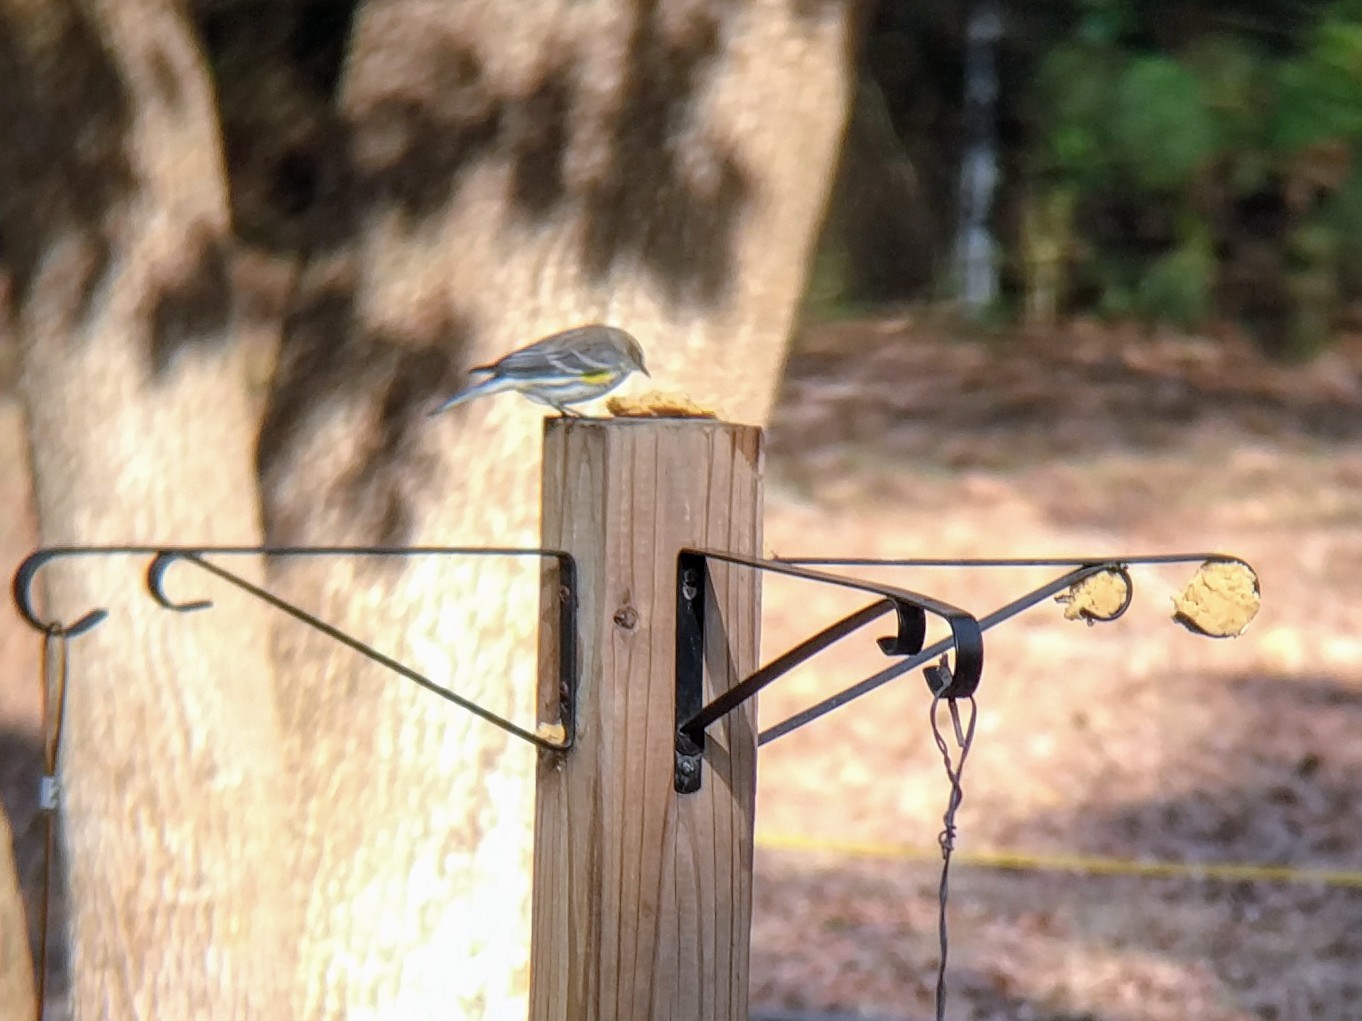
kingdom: Animalia
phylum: Chordata
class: Aves
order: Passeriformes
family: Parulidae
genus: Setophaga
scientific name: Setophaga coronata
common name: Myrtle warbler
